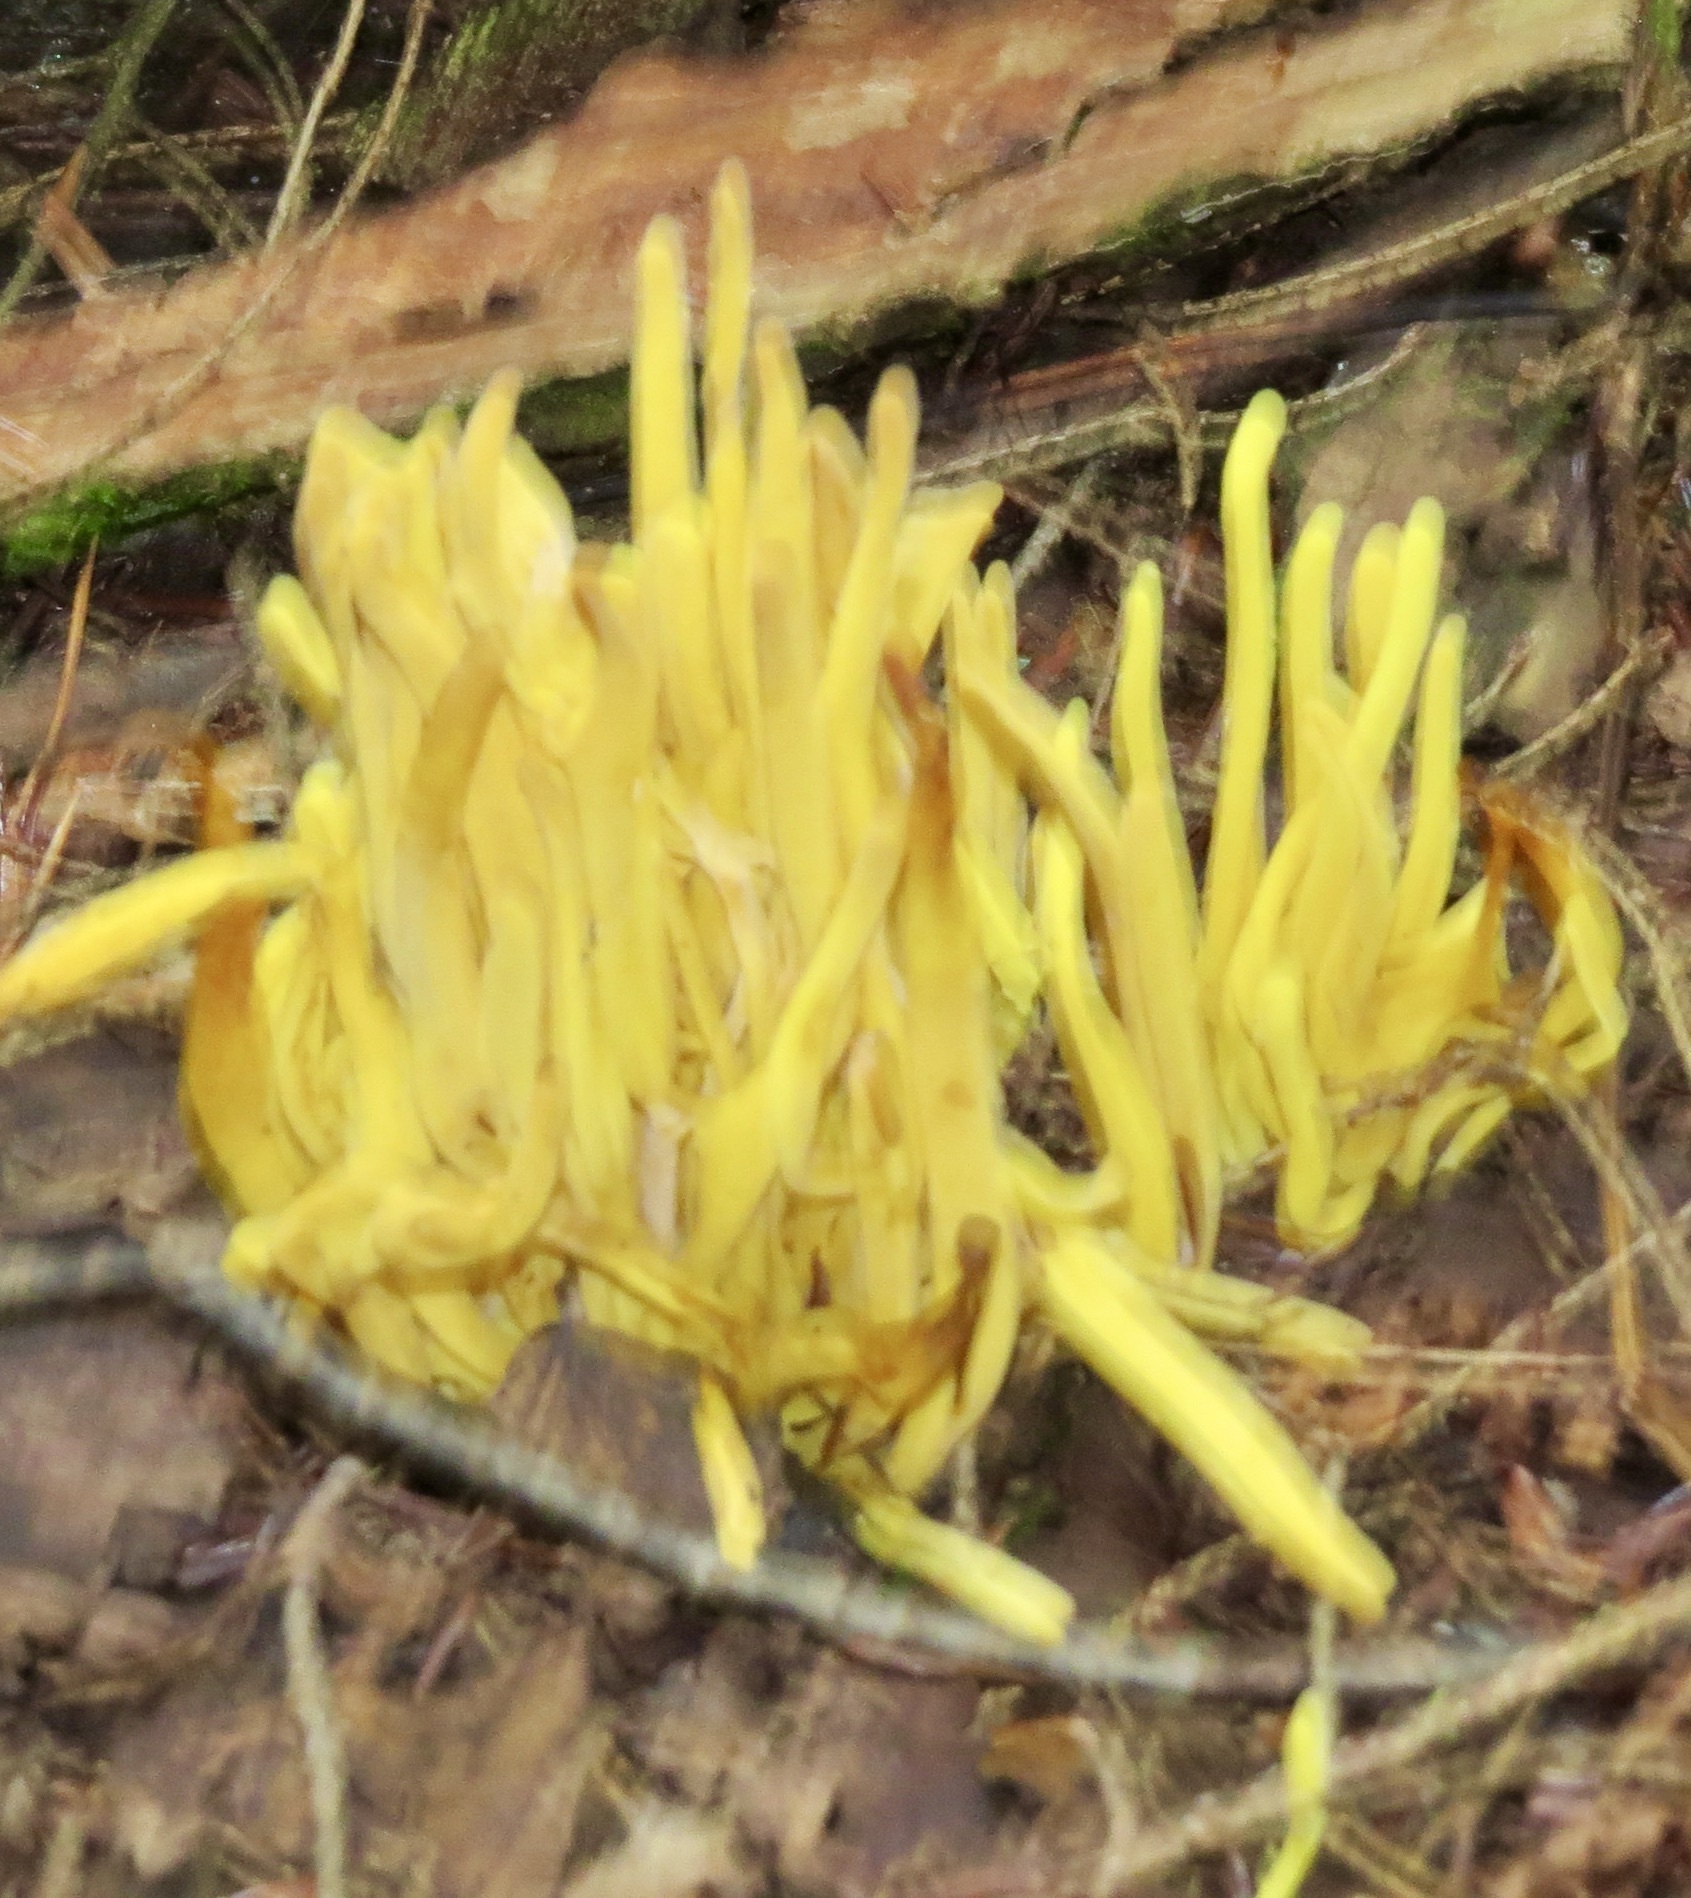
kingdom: Fungi
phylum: Basidiomycota
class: Agaricomycetes
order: Agaricales
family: Clavariaceae
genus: Clavulinopsis
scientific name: Clavulinopsis fusiformis
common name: Golden spindles
